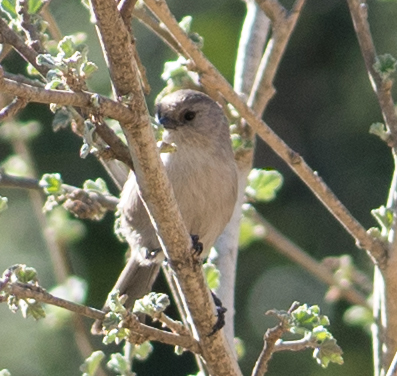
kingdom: Animalia
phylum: Chordata
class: Aves
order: Passeriformes
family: Aegithalidae
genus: Psaltriparus
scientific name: Psaltriparus minimus
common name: American bushtit
